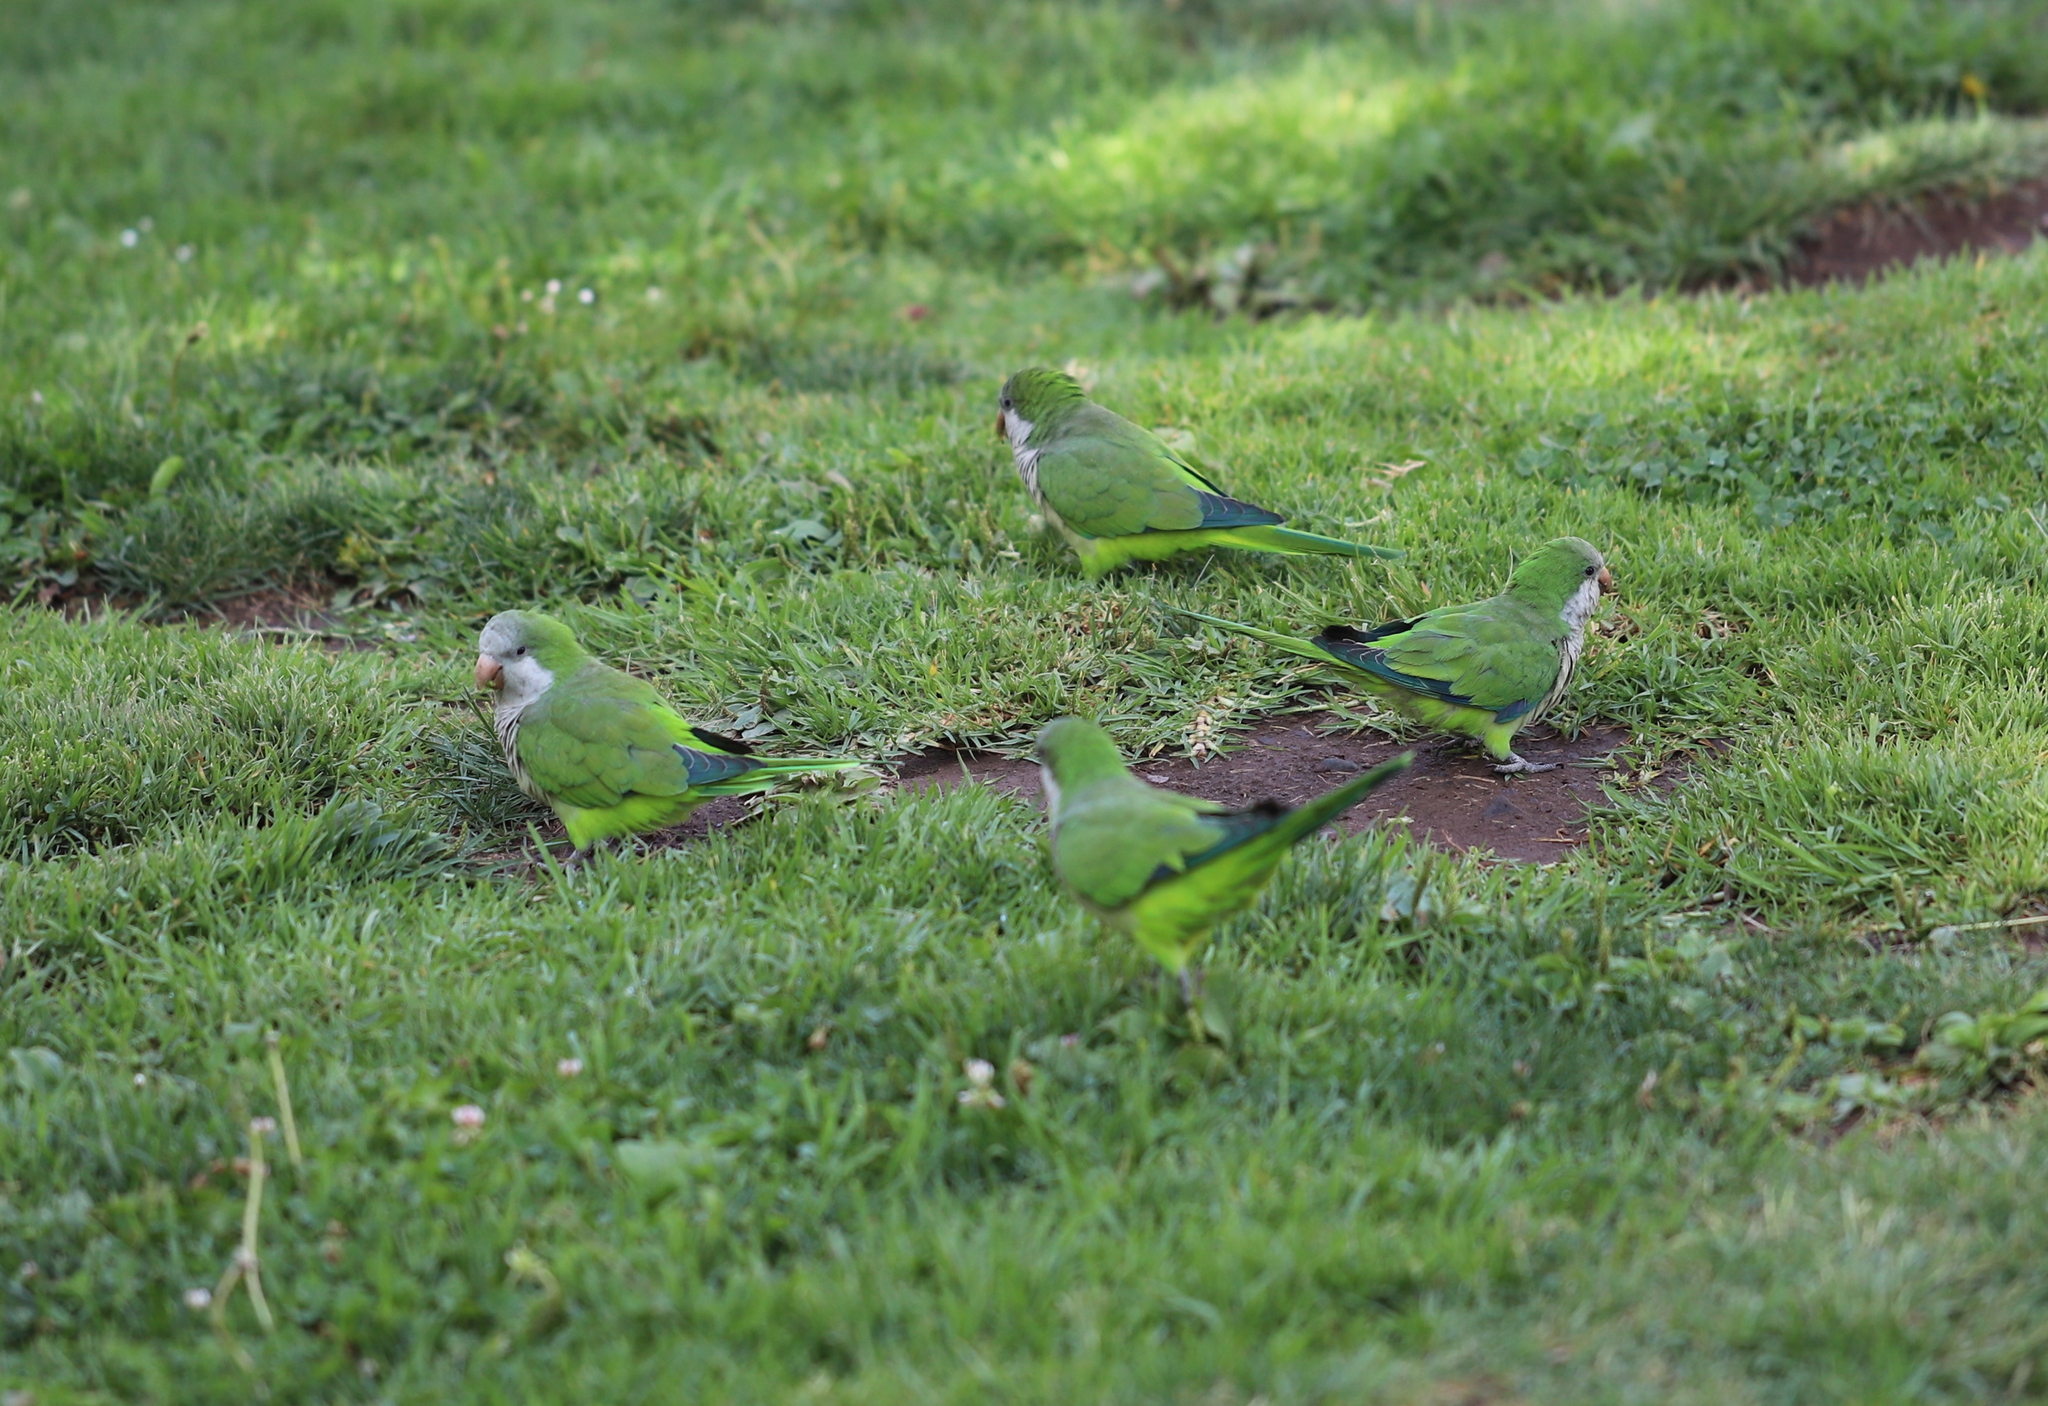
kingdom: Animalia
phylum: Chordata
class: Aves
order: Psittaciformes
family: Psittacidae
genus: Myiopsitta
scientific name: Myiopsitta monachus
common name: Monk parakeet
